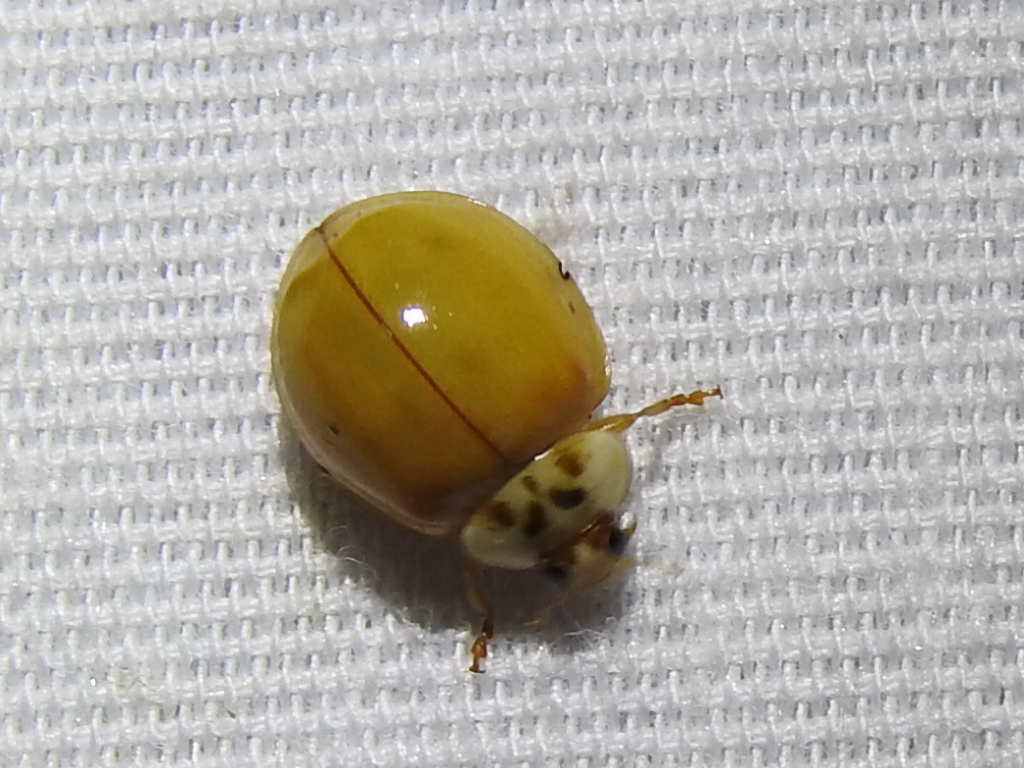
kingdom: Animalia
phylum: Arthropoda
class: Insecta
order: Coleoptera
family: Coccinellidae
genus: Harmonia
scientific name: Harmonia axyridis
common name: Harlequin ladybird
